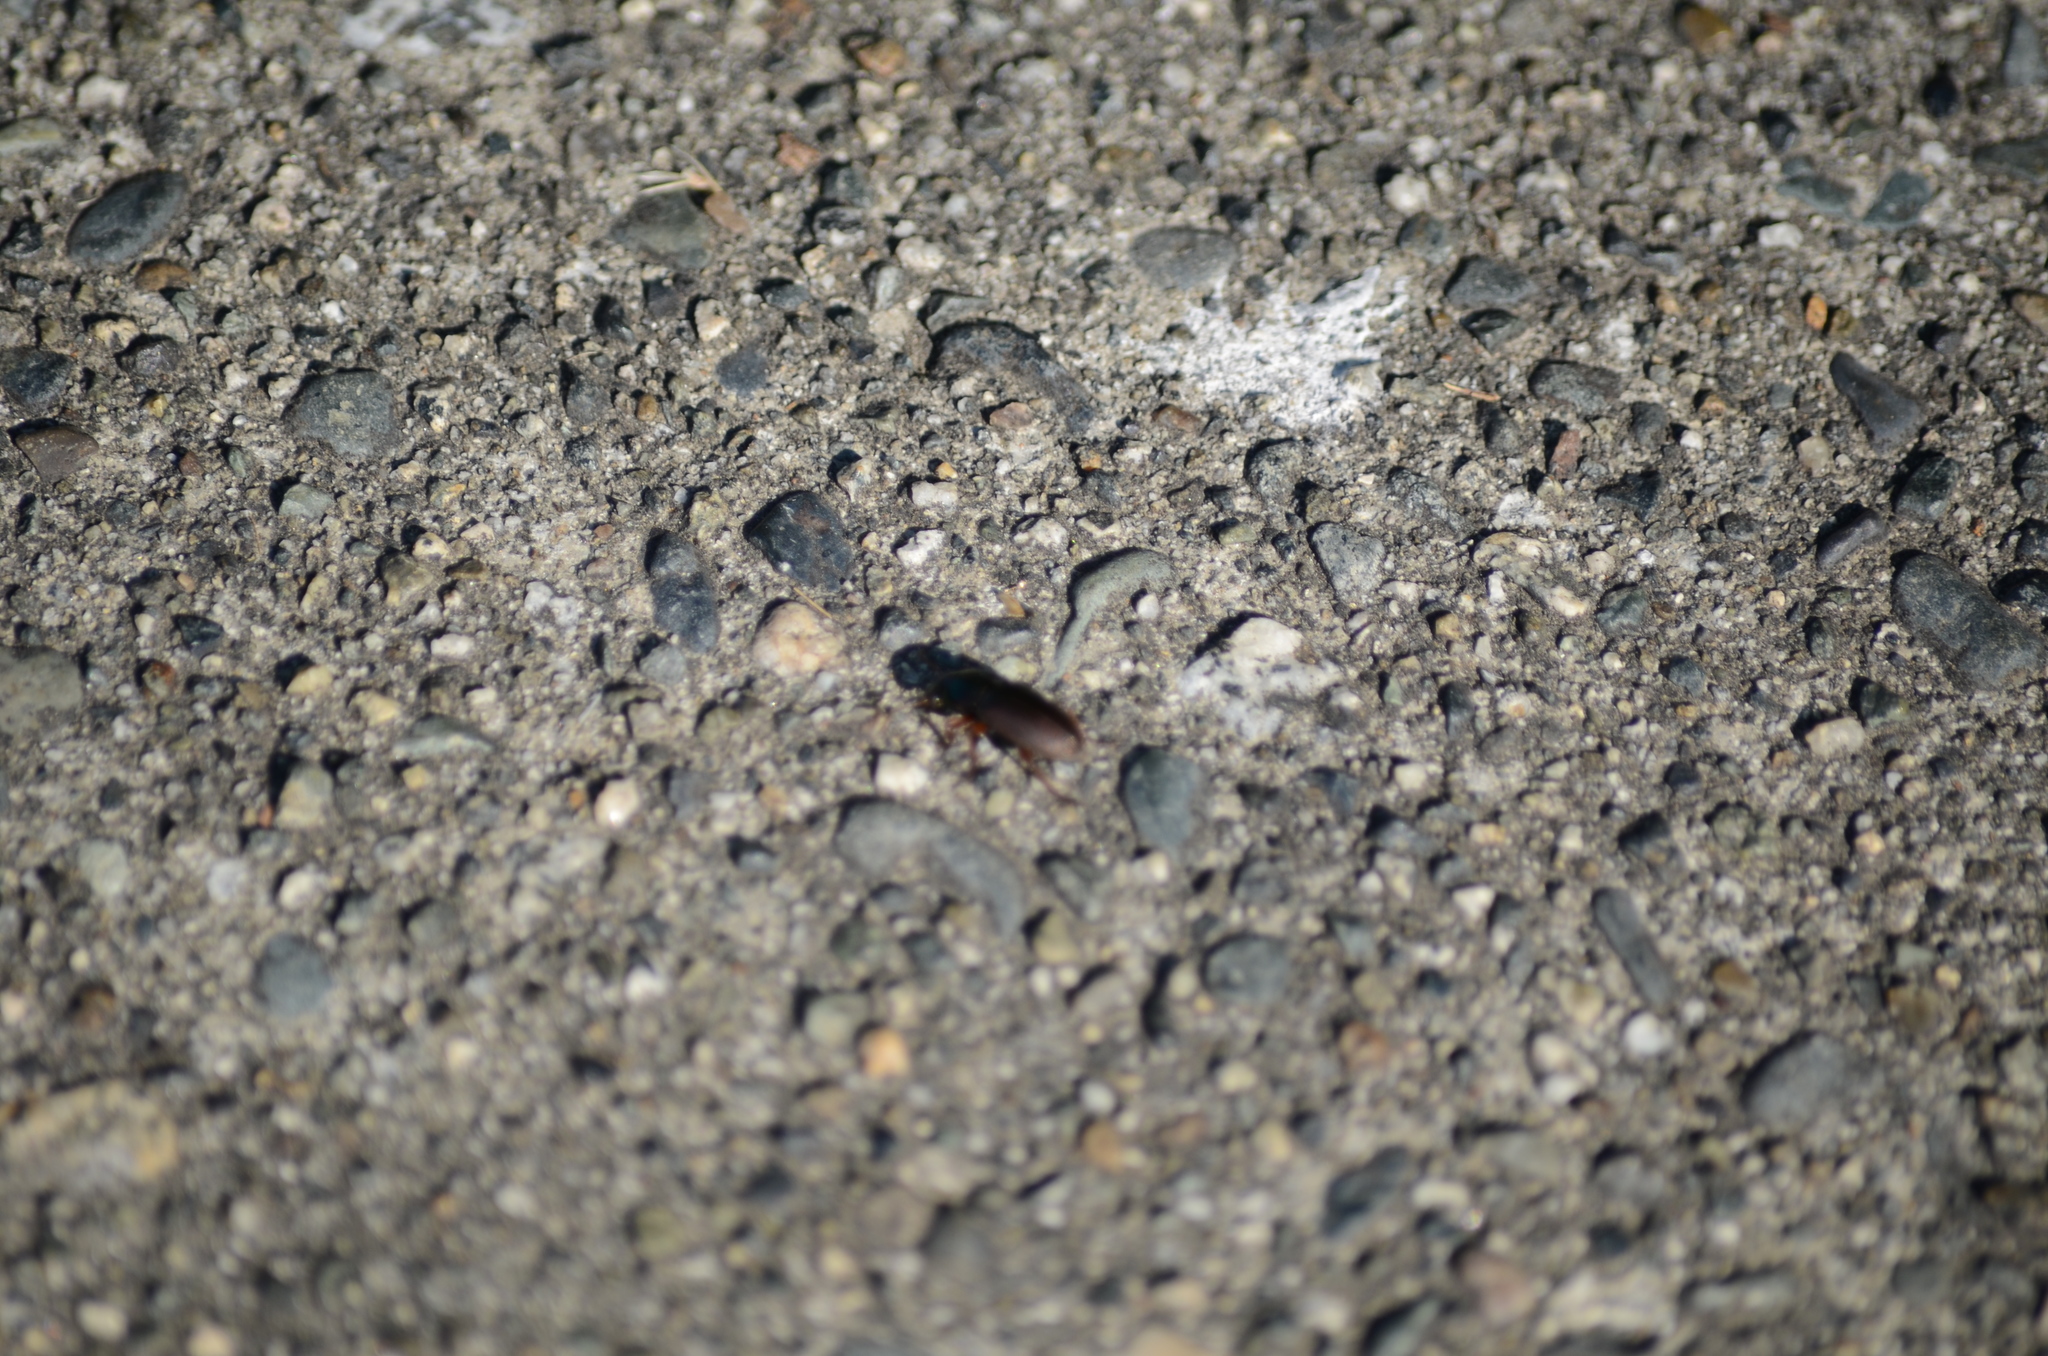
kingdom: Animalia
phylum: Arthropoda
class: Insecta
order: Coleoptera
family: Carabidae
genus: Harpalus
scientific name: Harpalus affinis
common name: Polychrome harp ground beetle
